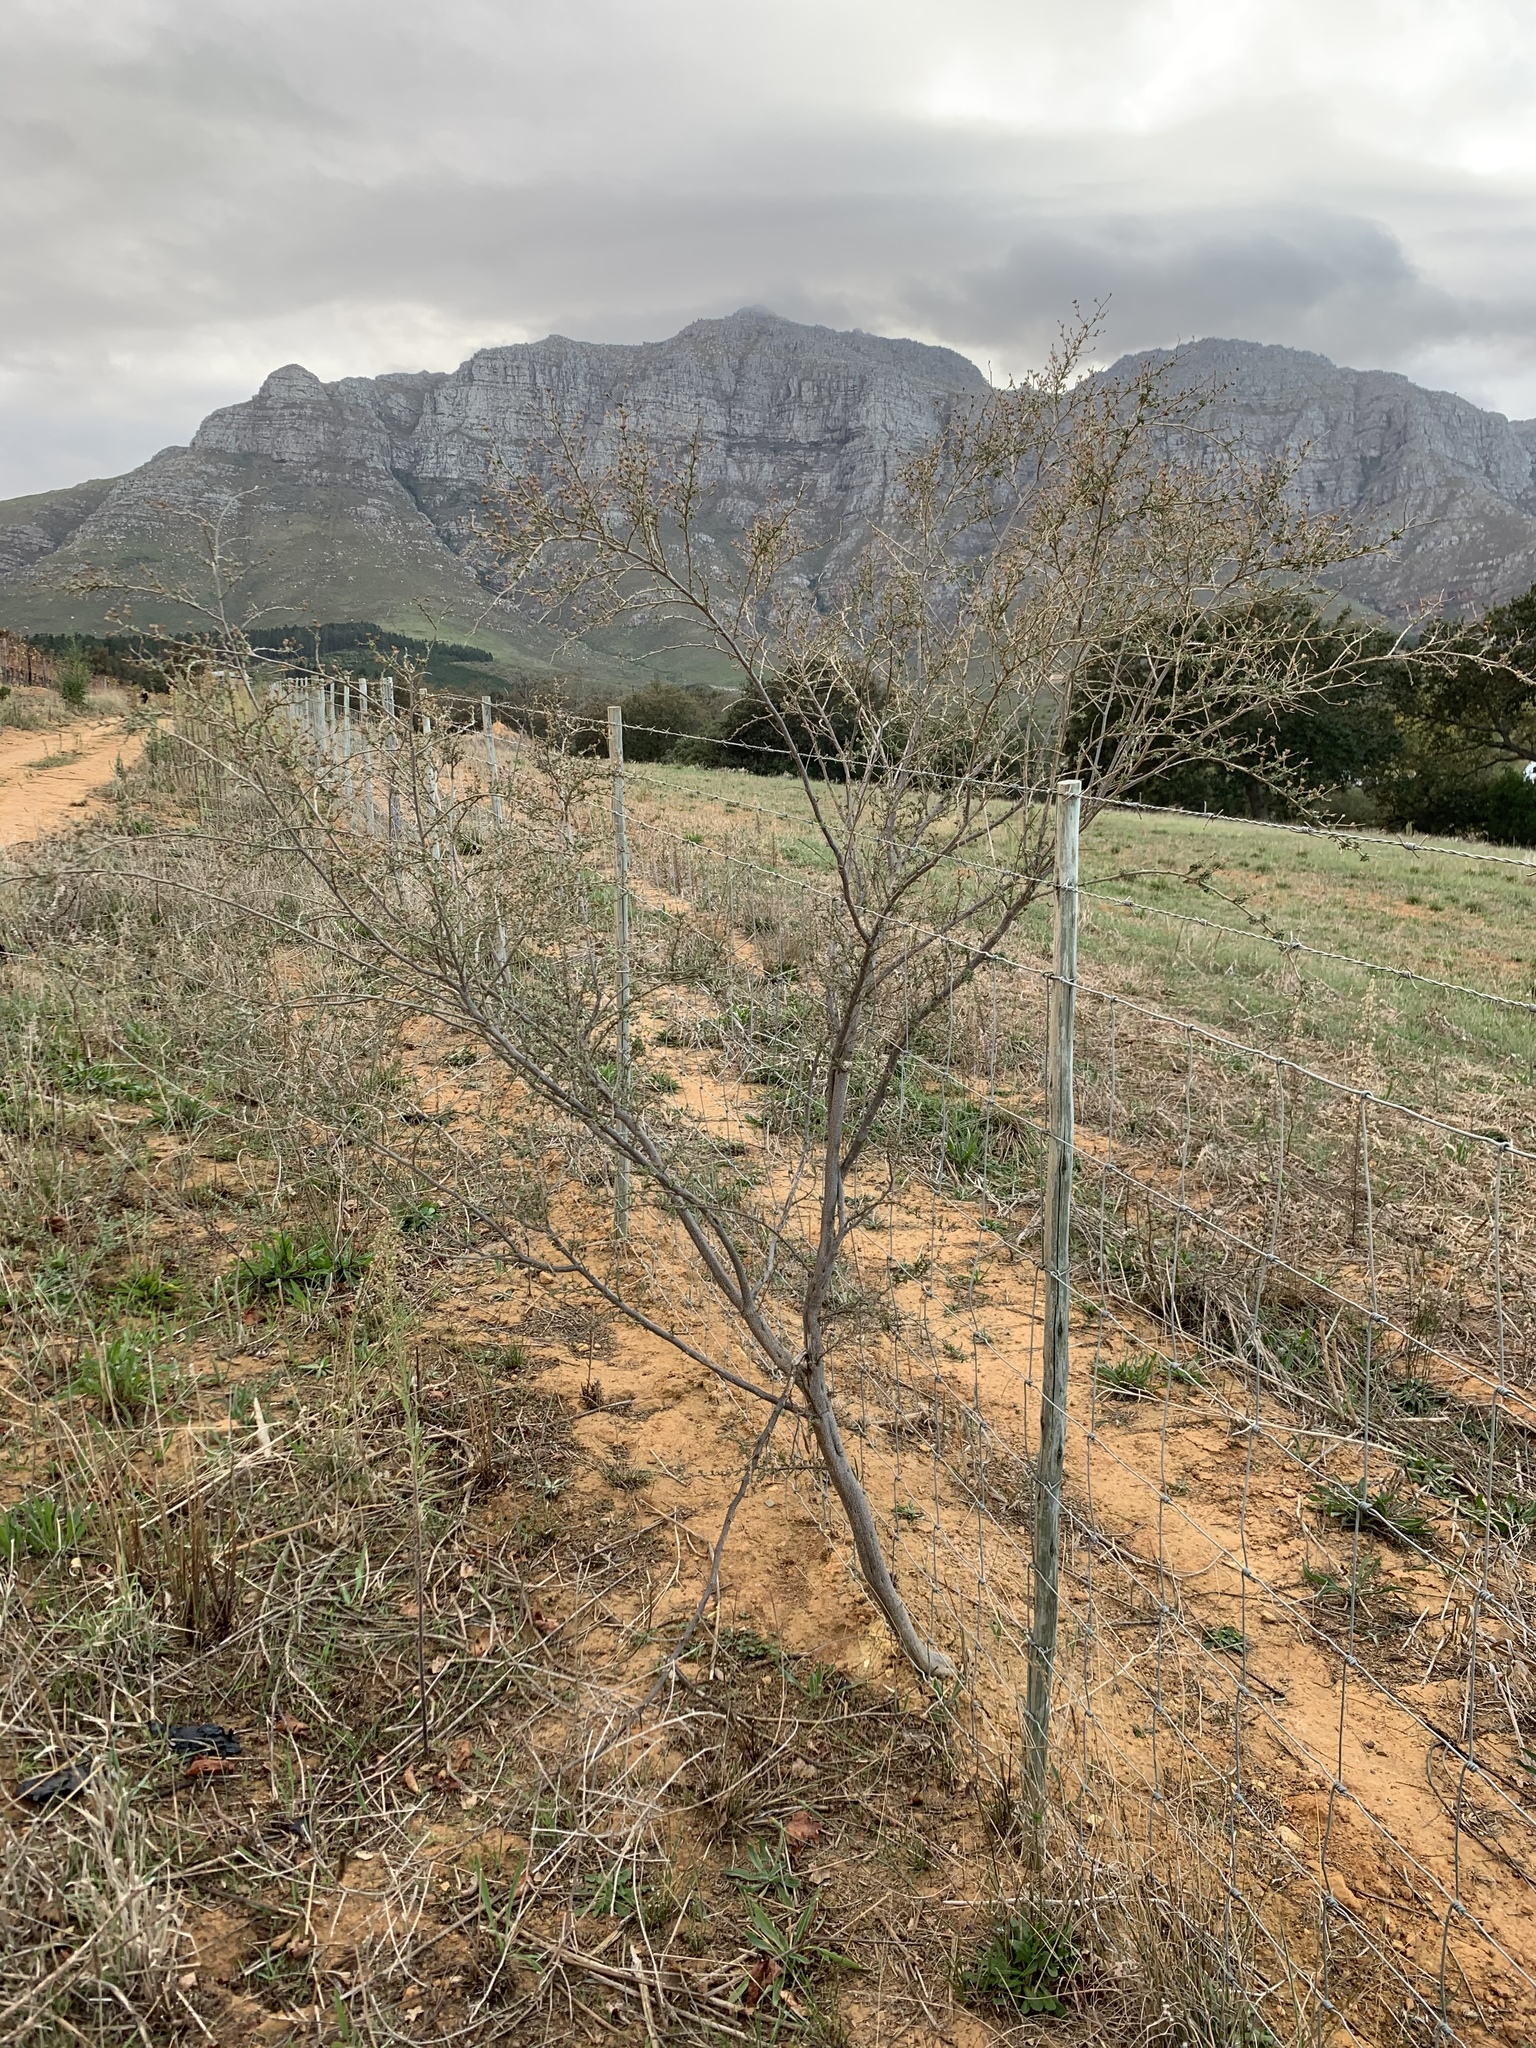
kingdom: Plantae
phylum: Tracheophyta
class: Magnoliopsida
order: Fabales
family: Fabaceae
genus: Psoralea
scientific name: Psoralea hirta
